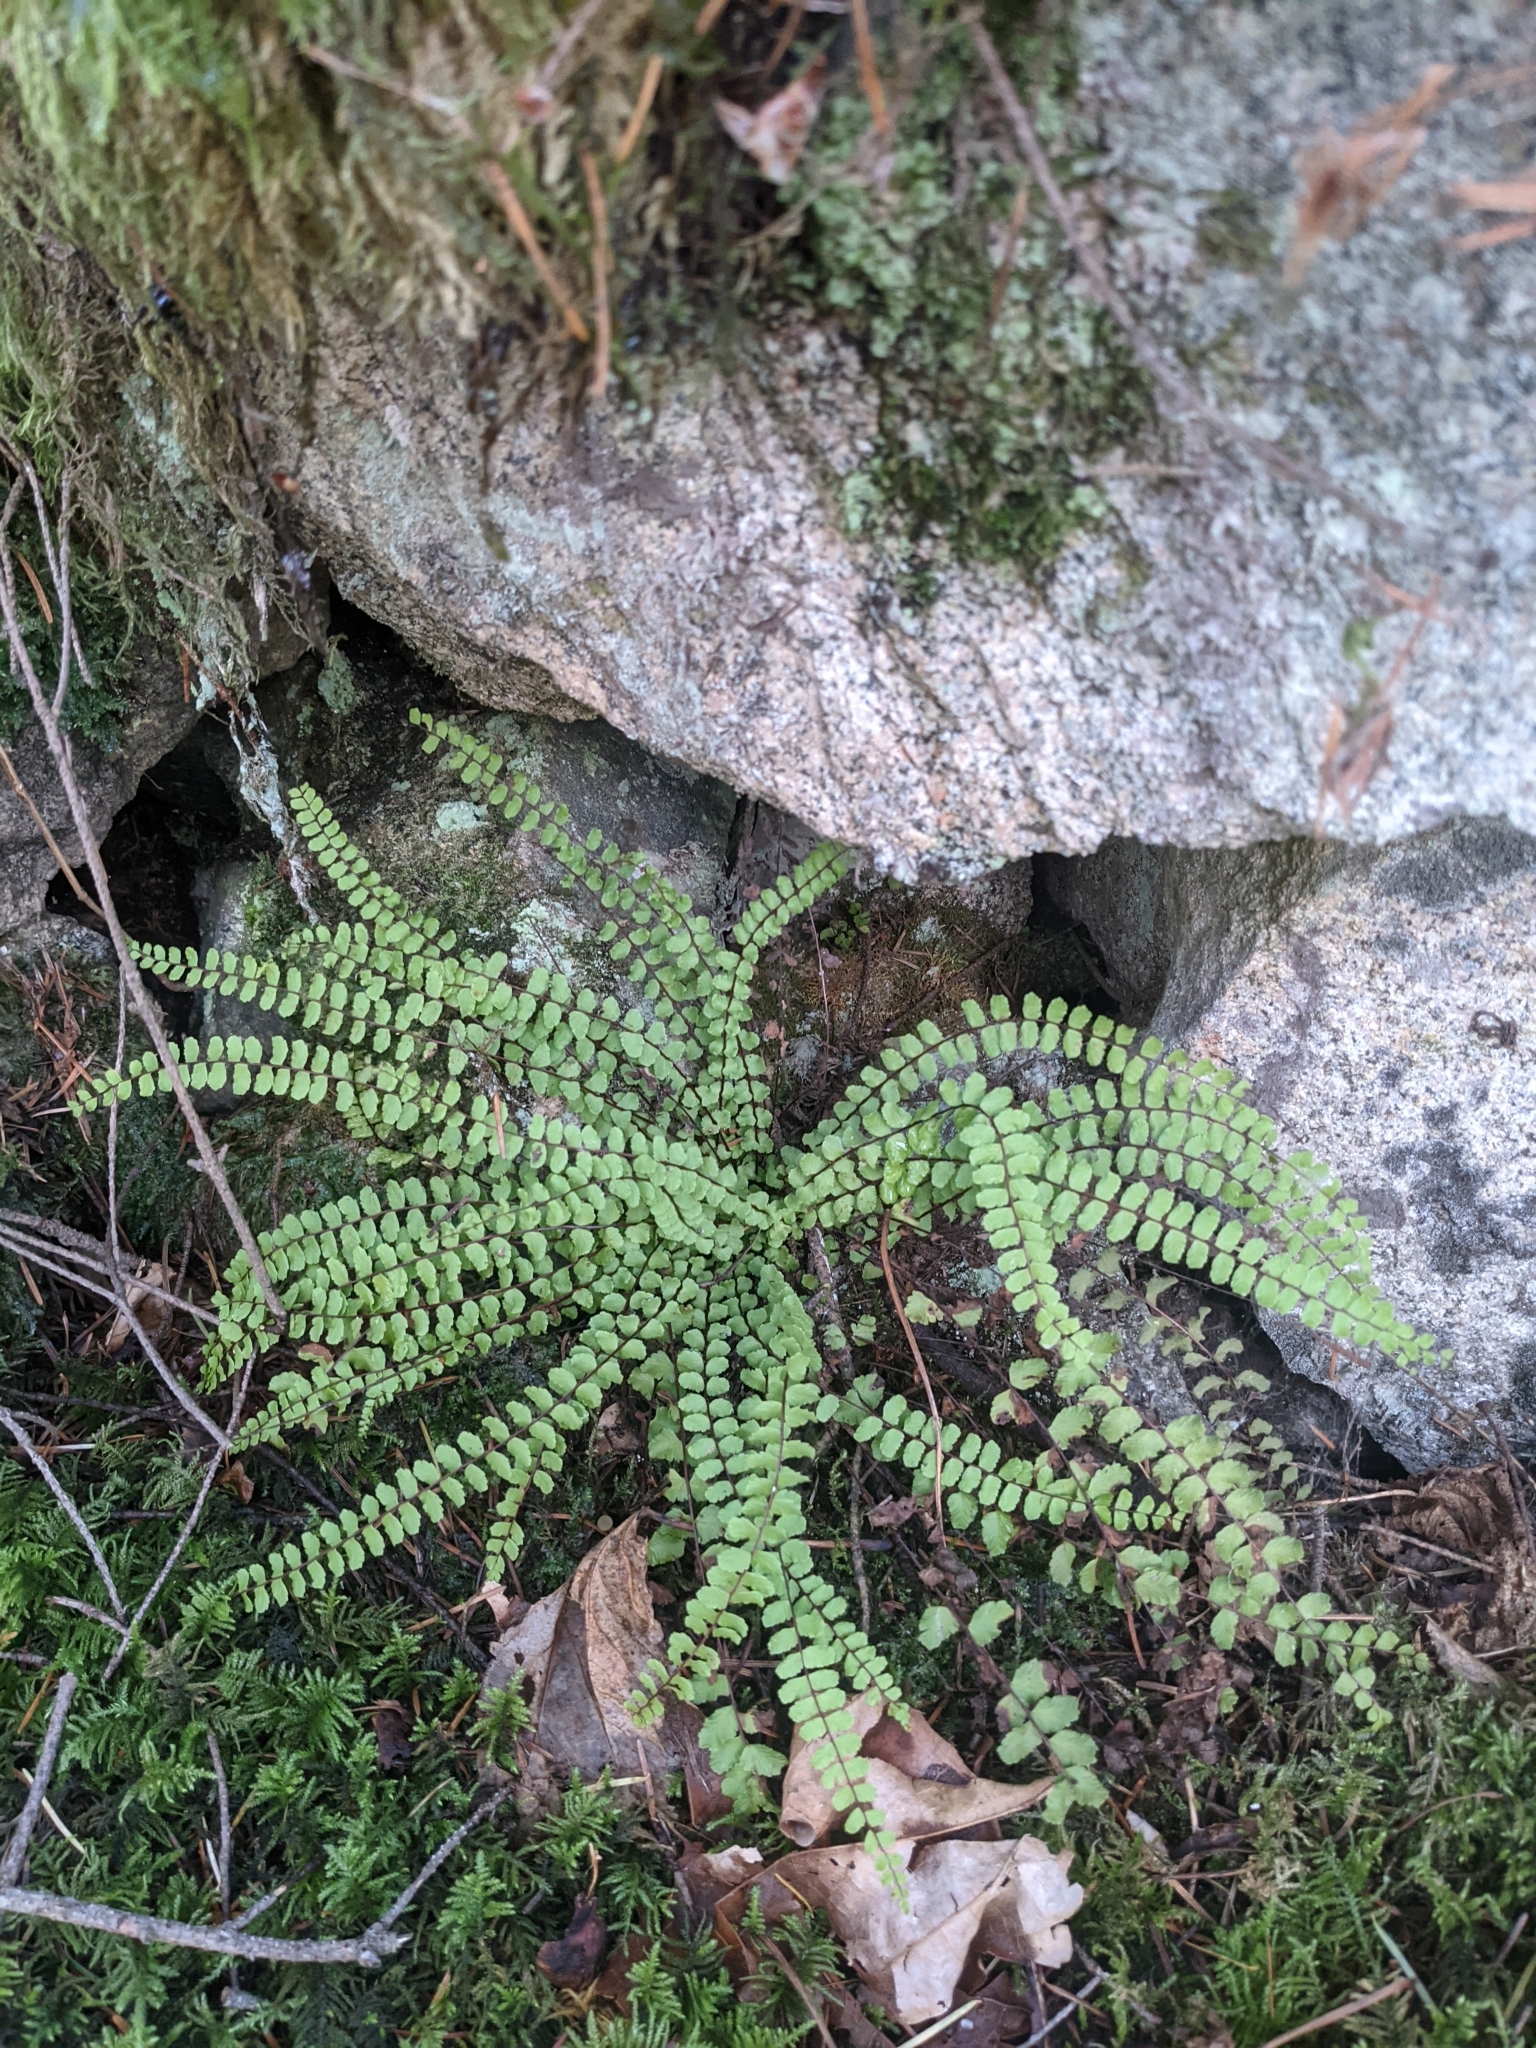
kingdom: Plantae
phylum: Tracheophyta
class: Polypodiopsida
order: Polypodiales
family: Aspleniaceae
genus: Asplenium
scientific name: Asplenium trichomanes
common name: Maidenhair spleenwort
